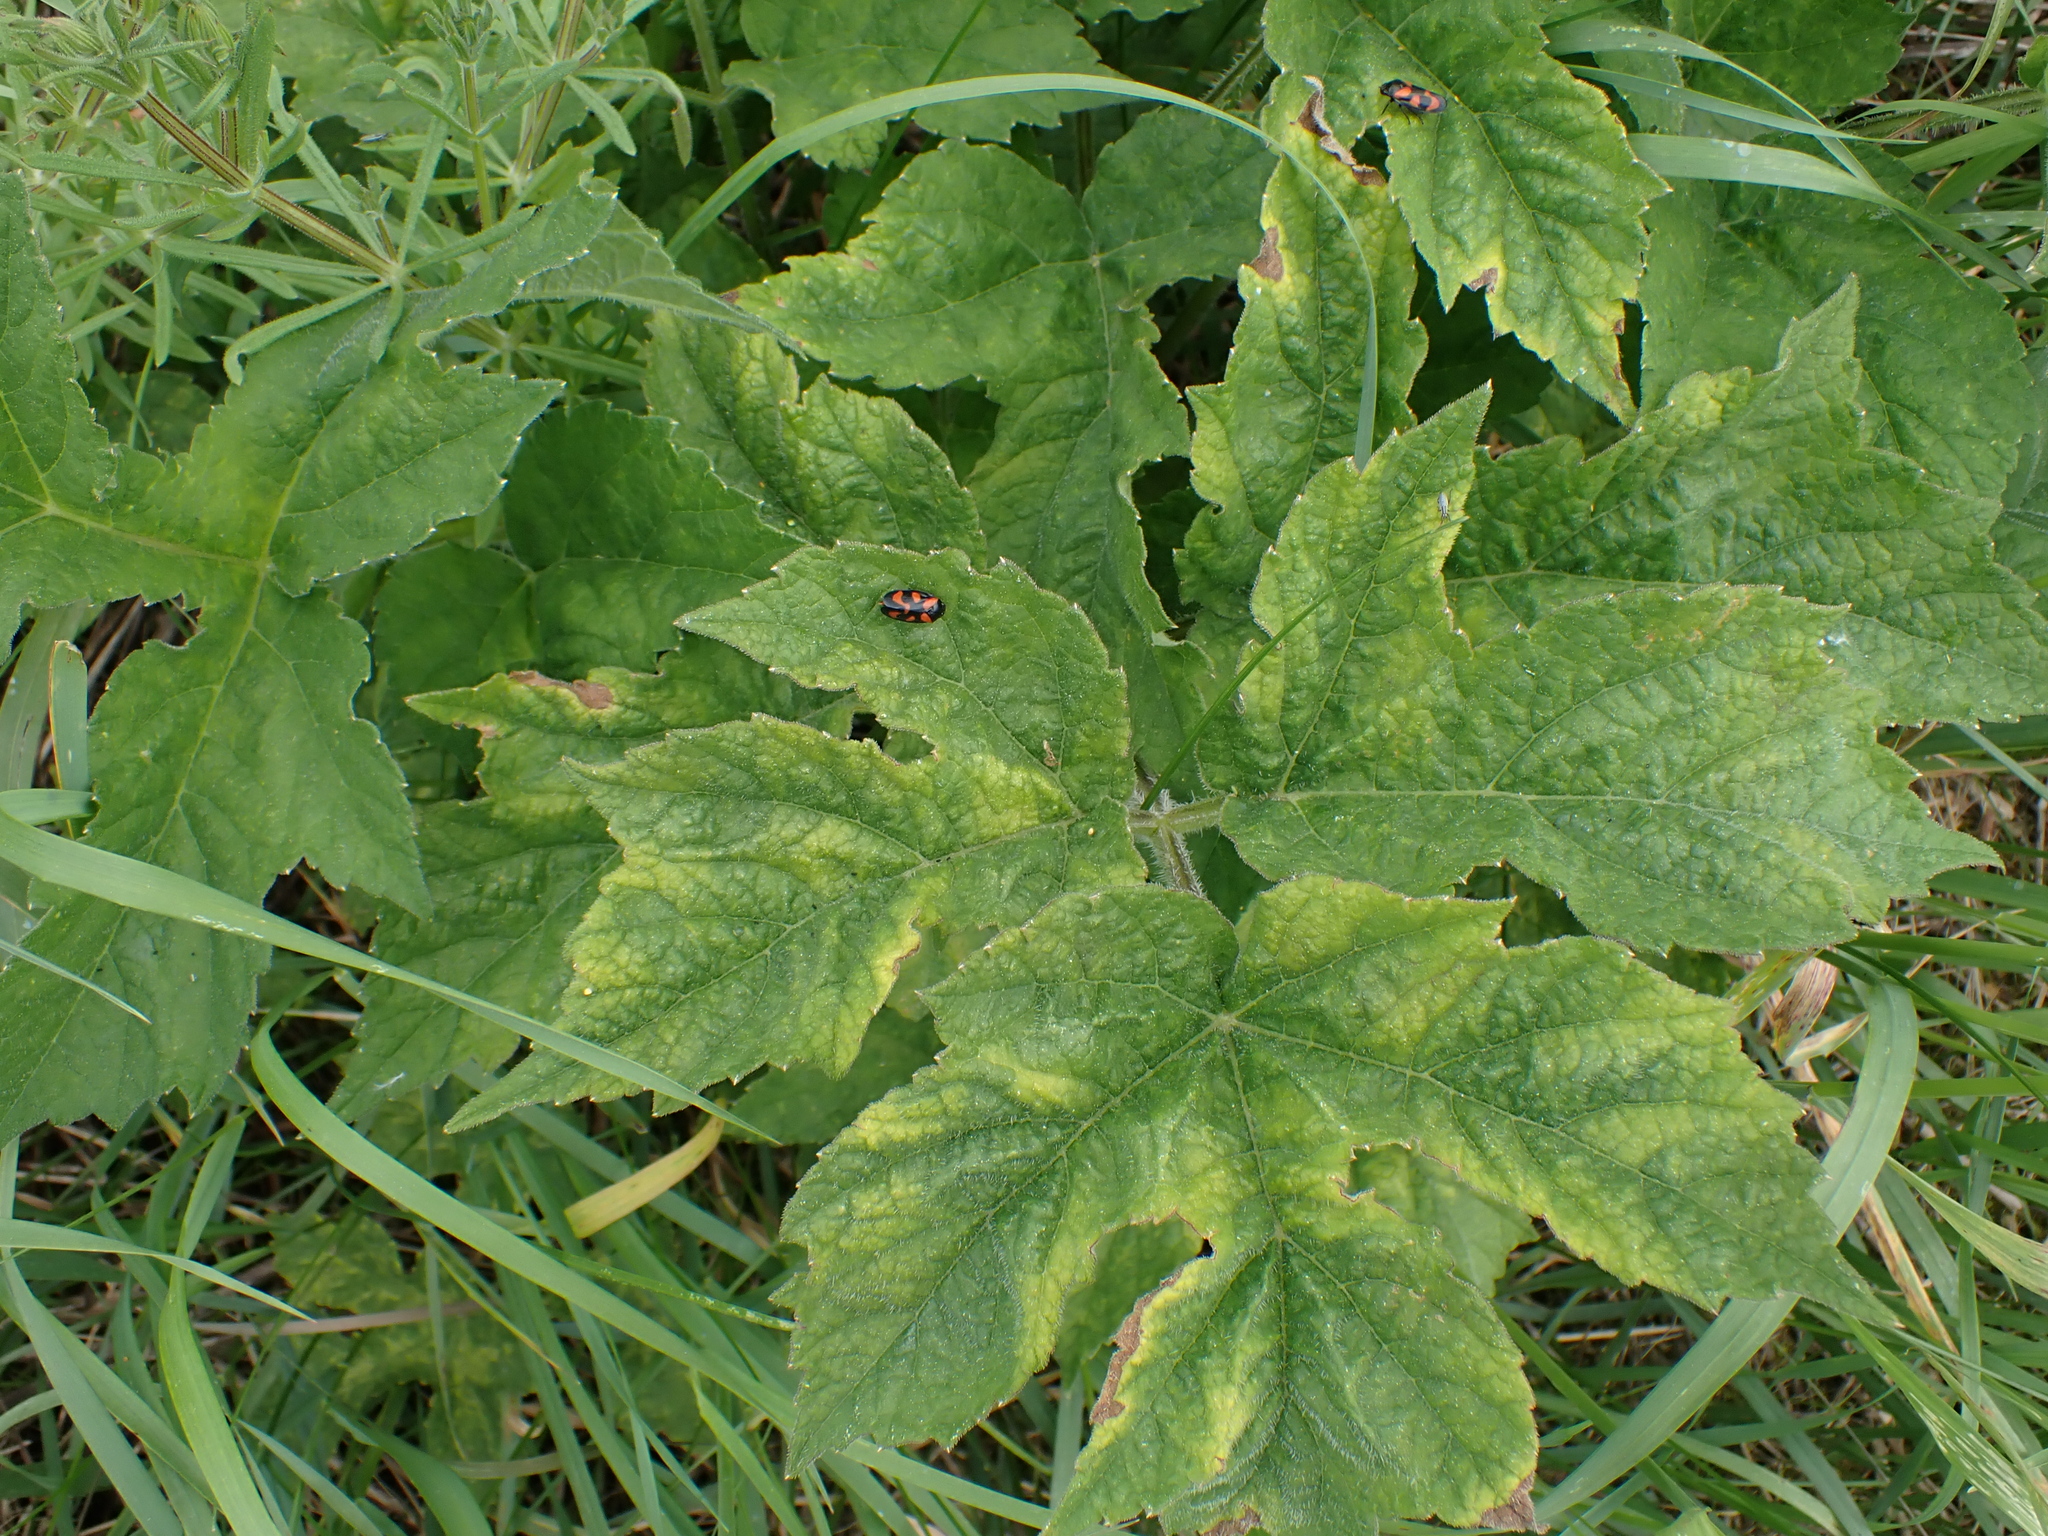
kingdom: Plantae
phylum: Tracheophyta
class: Magnoliopsida
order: Apiales
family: Apiaceae
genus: Heracleum
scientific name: Heracleum sphondylium
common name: Hogweed
